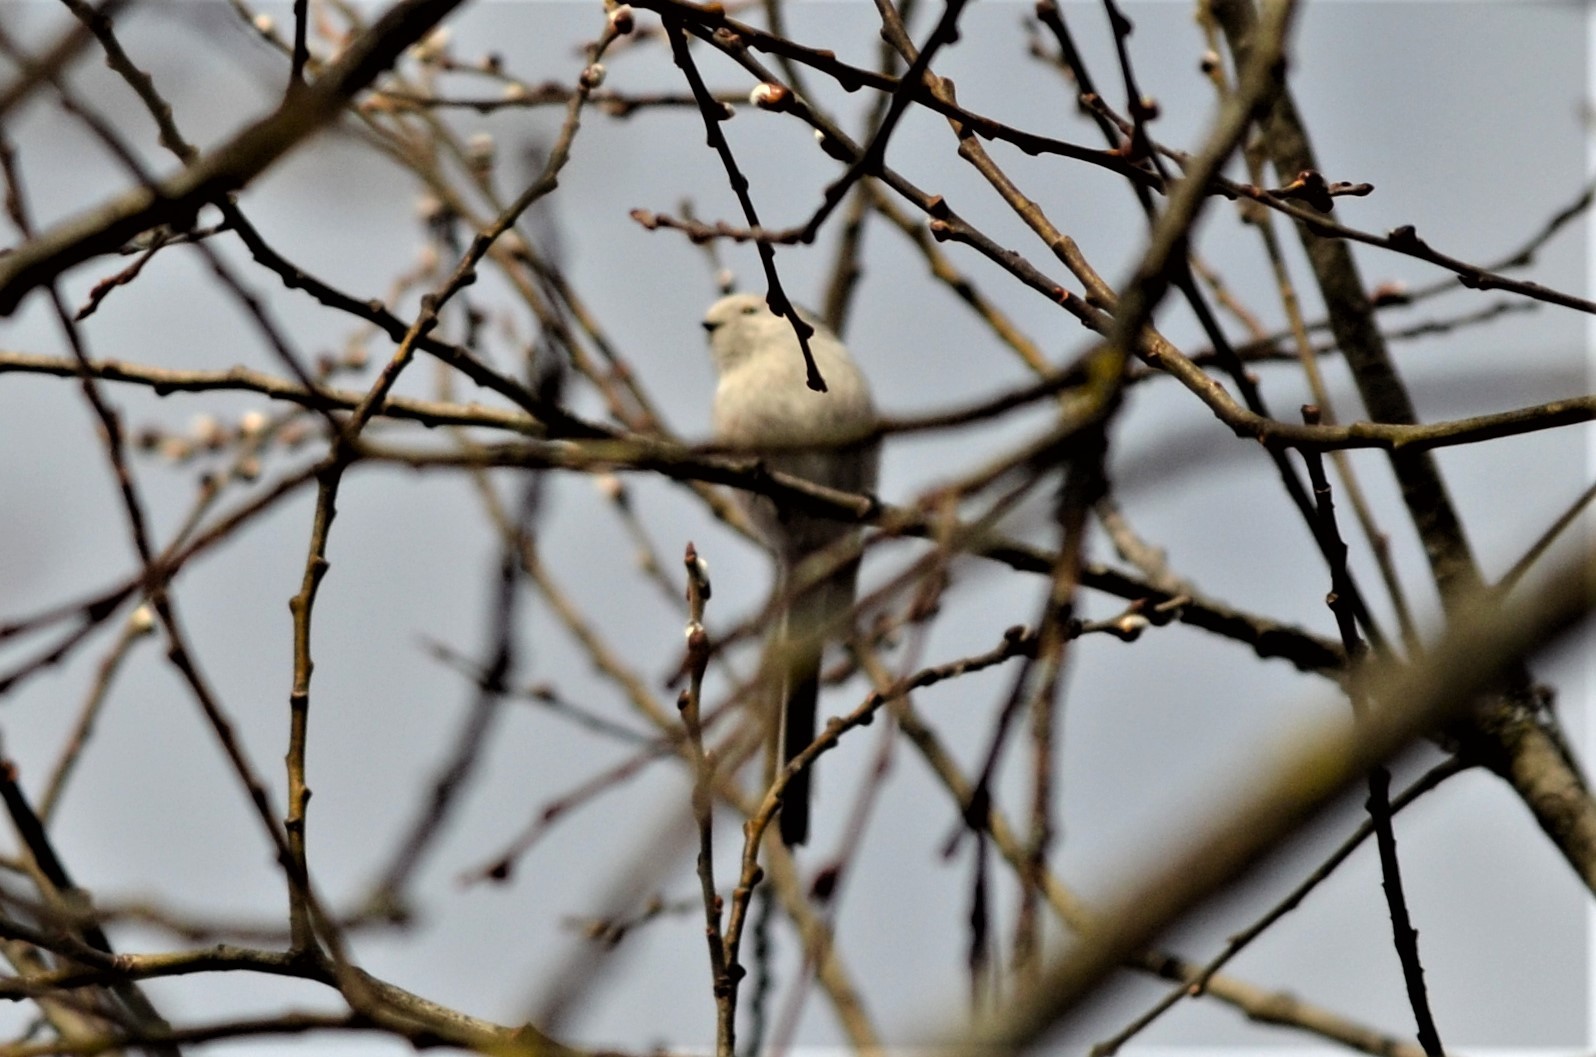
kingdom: Animalia
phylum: Chordata
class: Aves
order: Passeriformes
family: Aegithalidae
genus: Aegithalos
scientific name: Aegithalos caudatus
